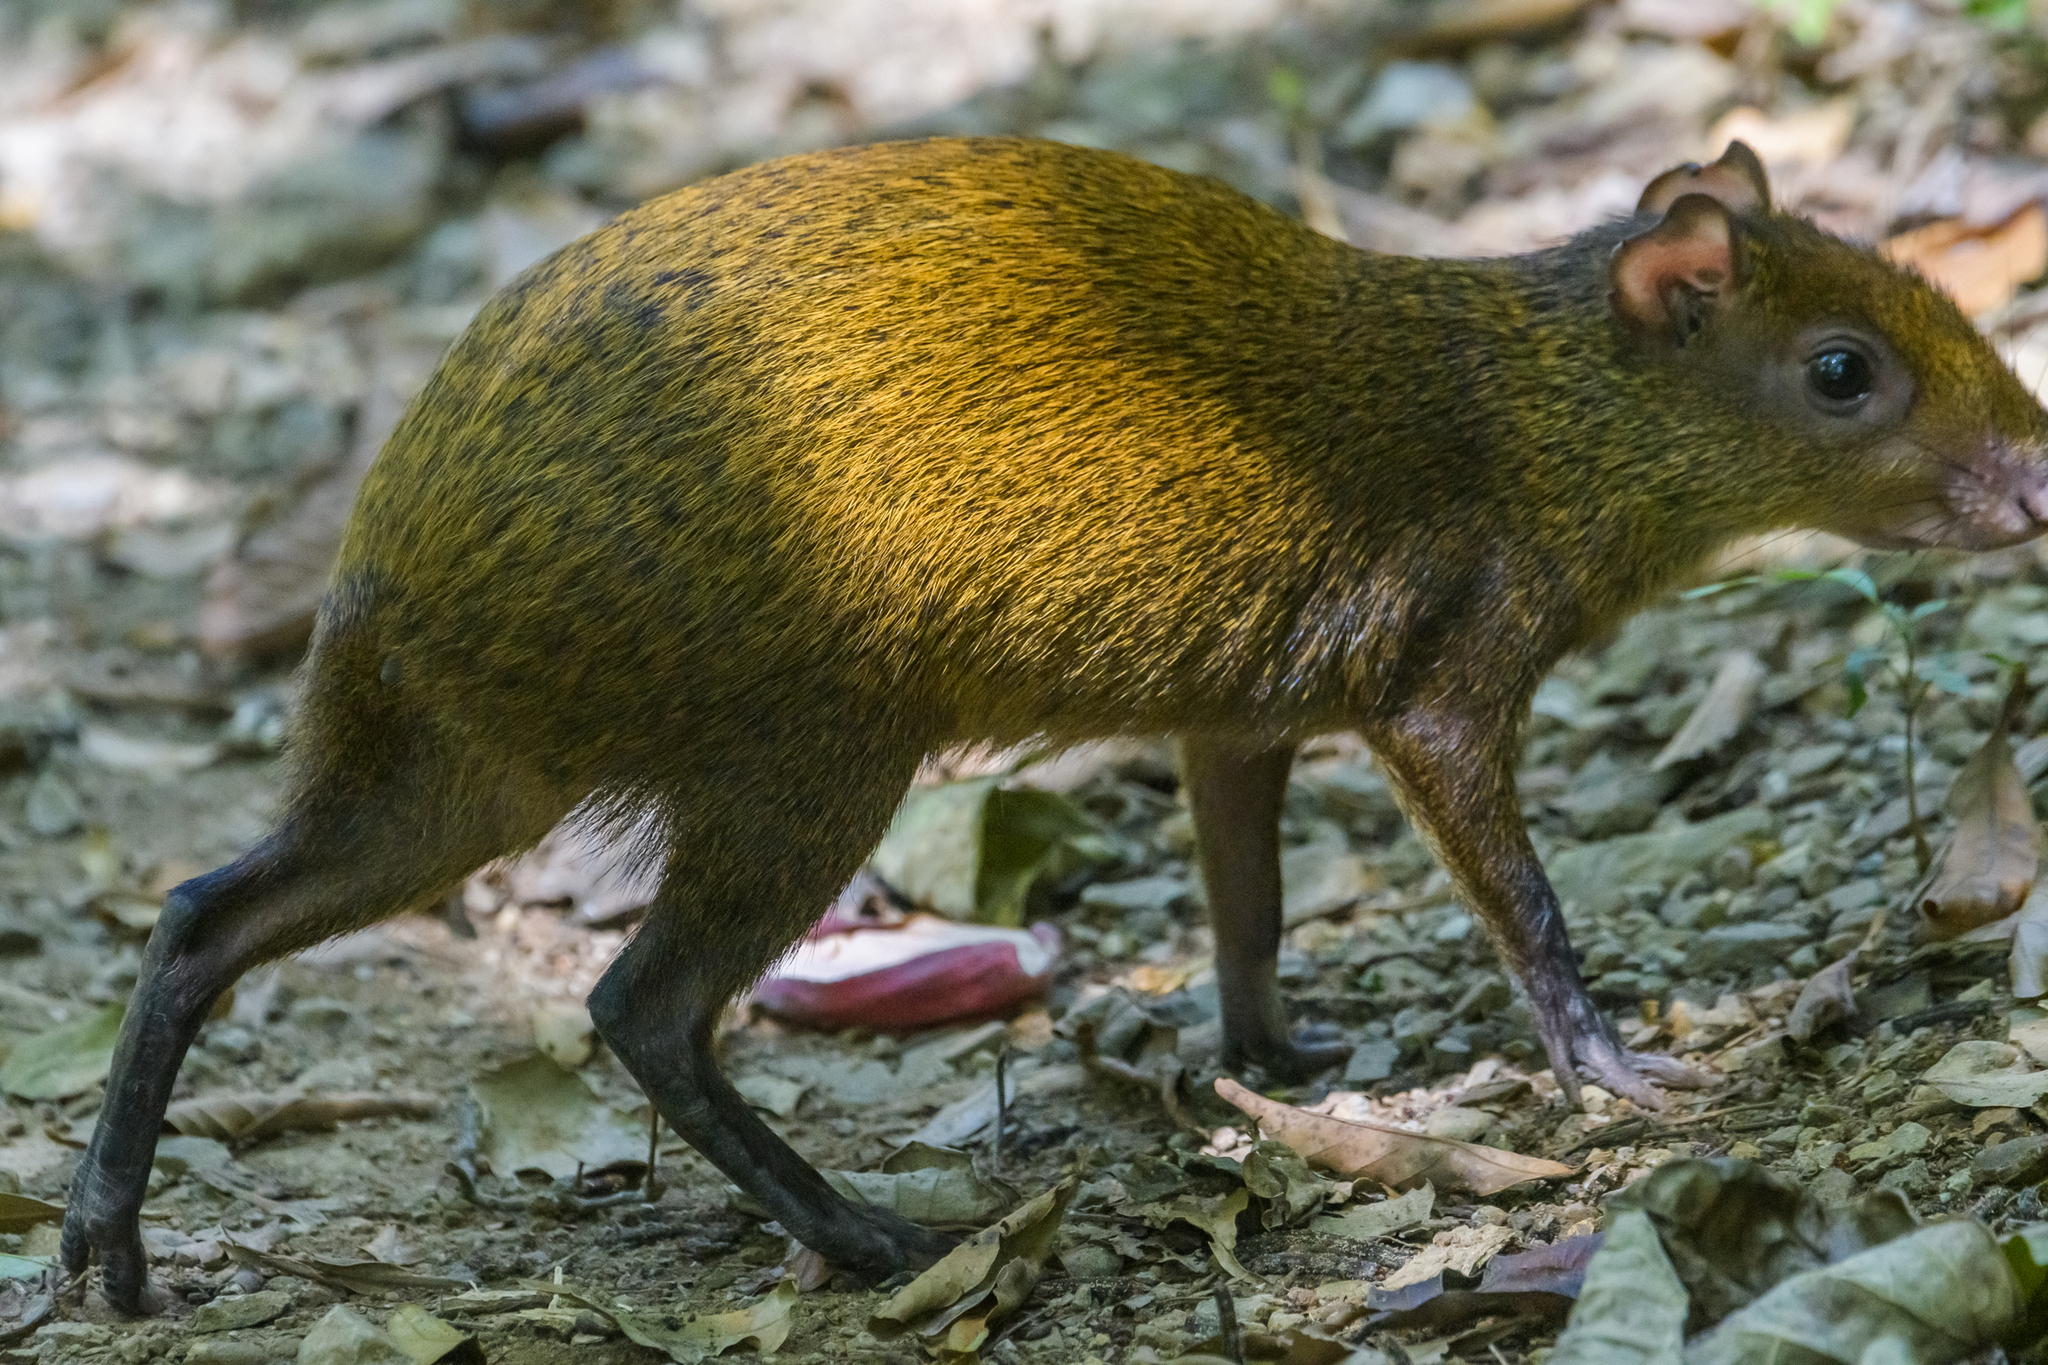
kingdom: Animalia
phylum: Chordata
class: Mammalia
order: Rodentia
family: Dasyproctidae
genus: Dasyprocta
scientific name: Dasyprocta punctata
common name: Central american agouti
